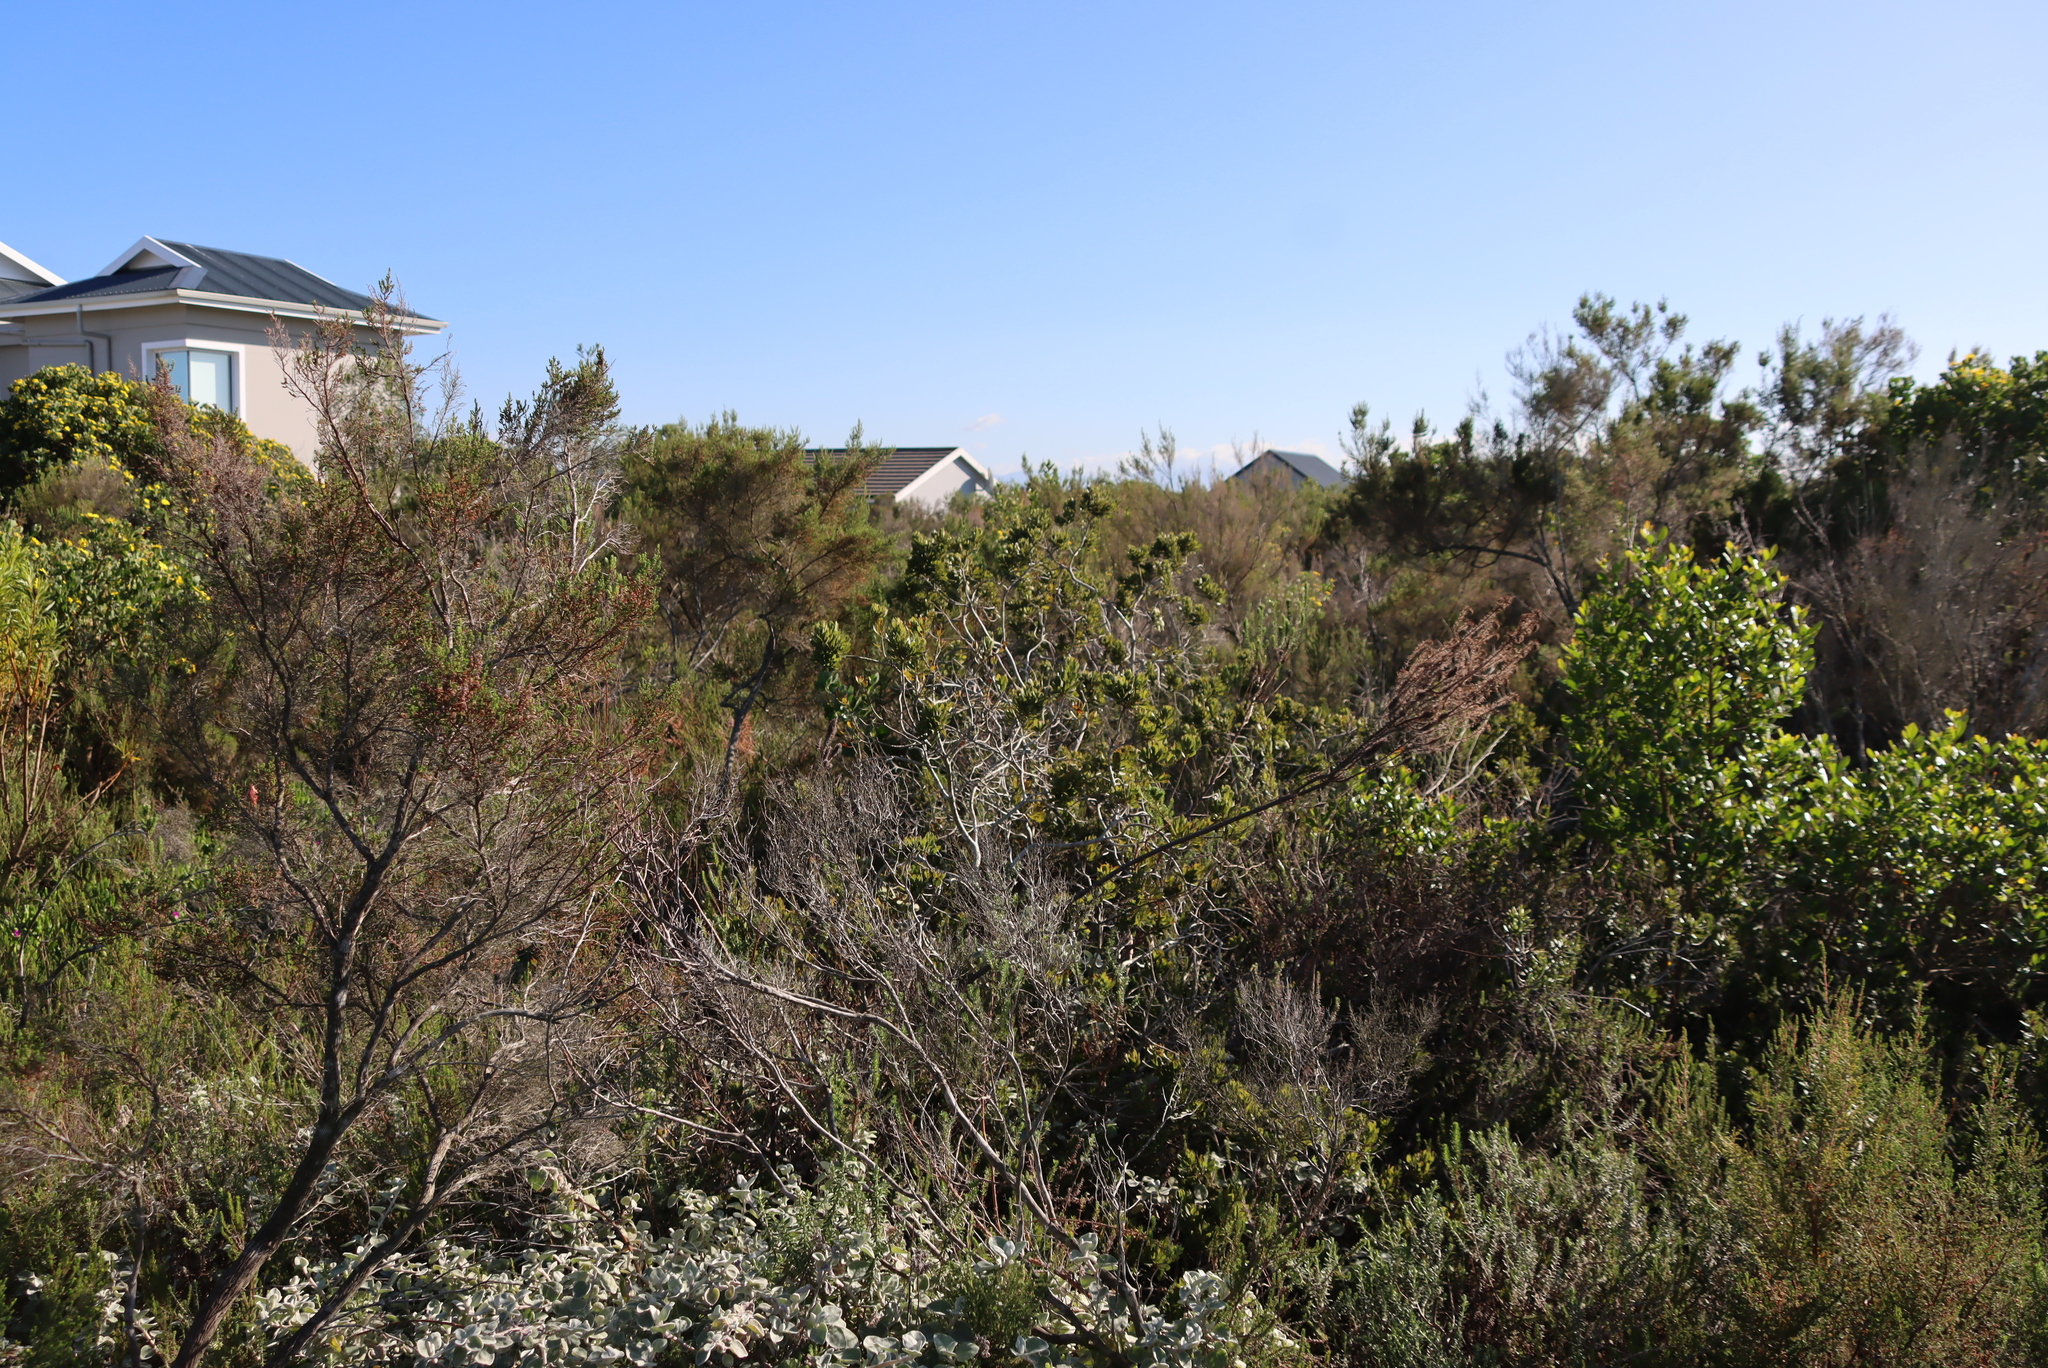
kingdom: Plantae
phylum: Tracheophyta
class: Magnoliopsida
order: Asterales
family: Asteraceae
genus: Nidorella
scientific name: Nidorella ivifolia
